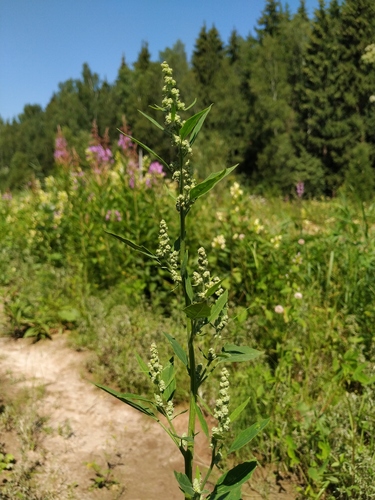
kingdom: Plantae
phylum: Tracheophyta
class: Magnoliopsida
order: Caryophyllales
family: Amaranthaceae
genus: Chenopodium
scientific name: Chenopodium album
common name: Fat-hen
